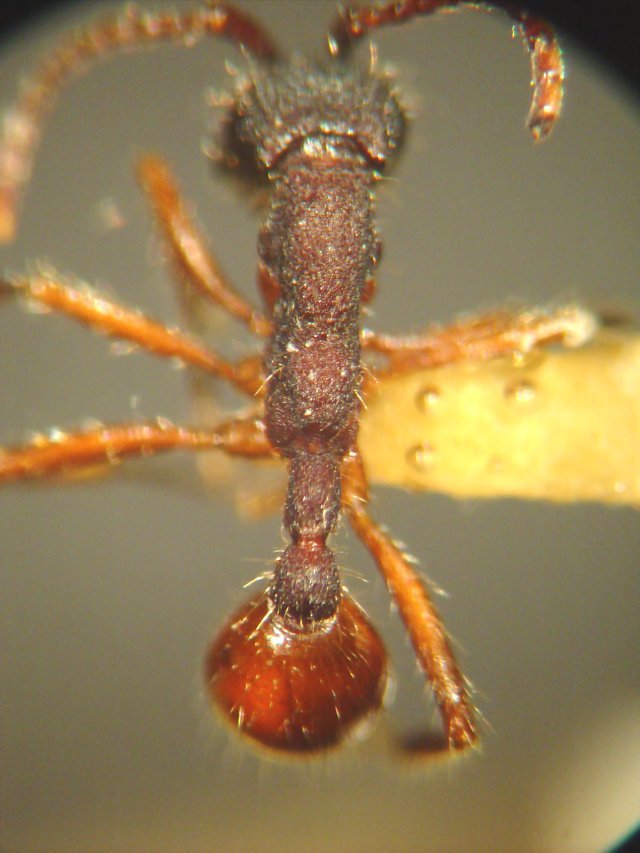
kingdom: Animalia
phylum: Arthropoda
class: Insecta
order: Hymenoptera
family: Formicidae
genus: Neivamyrmex
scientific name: Neivamyrmex texanus
